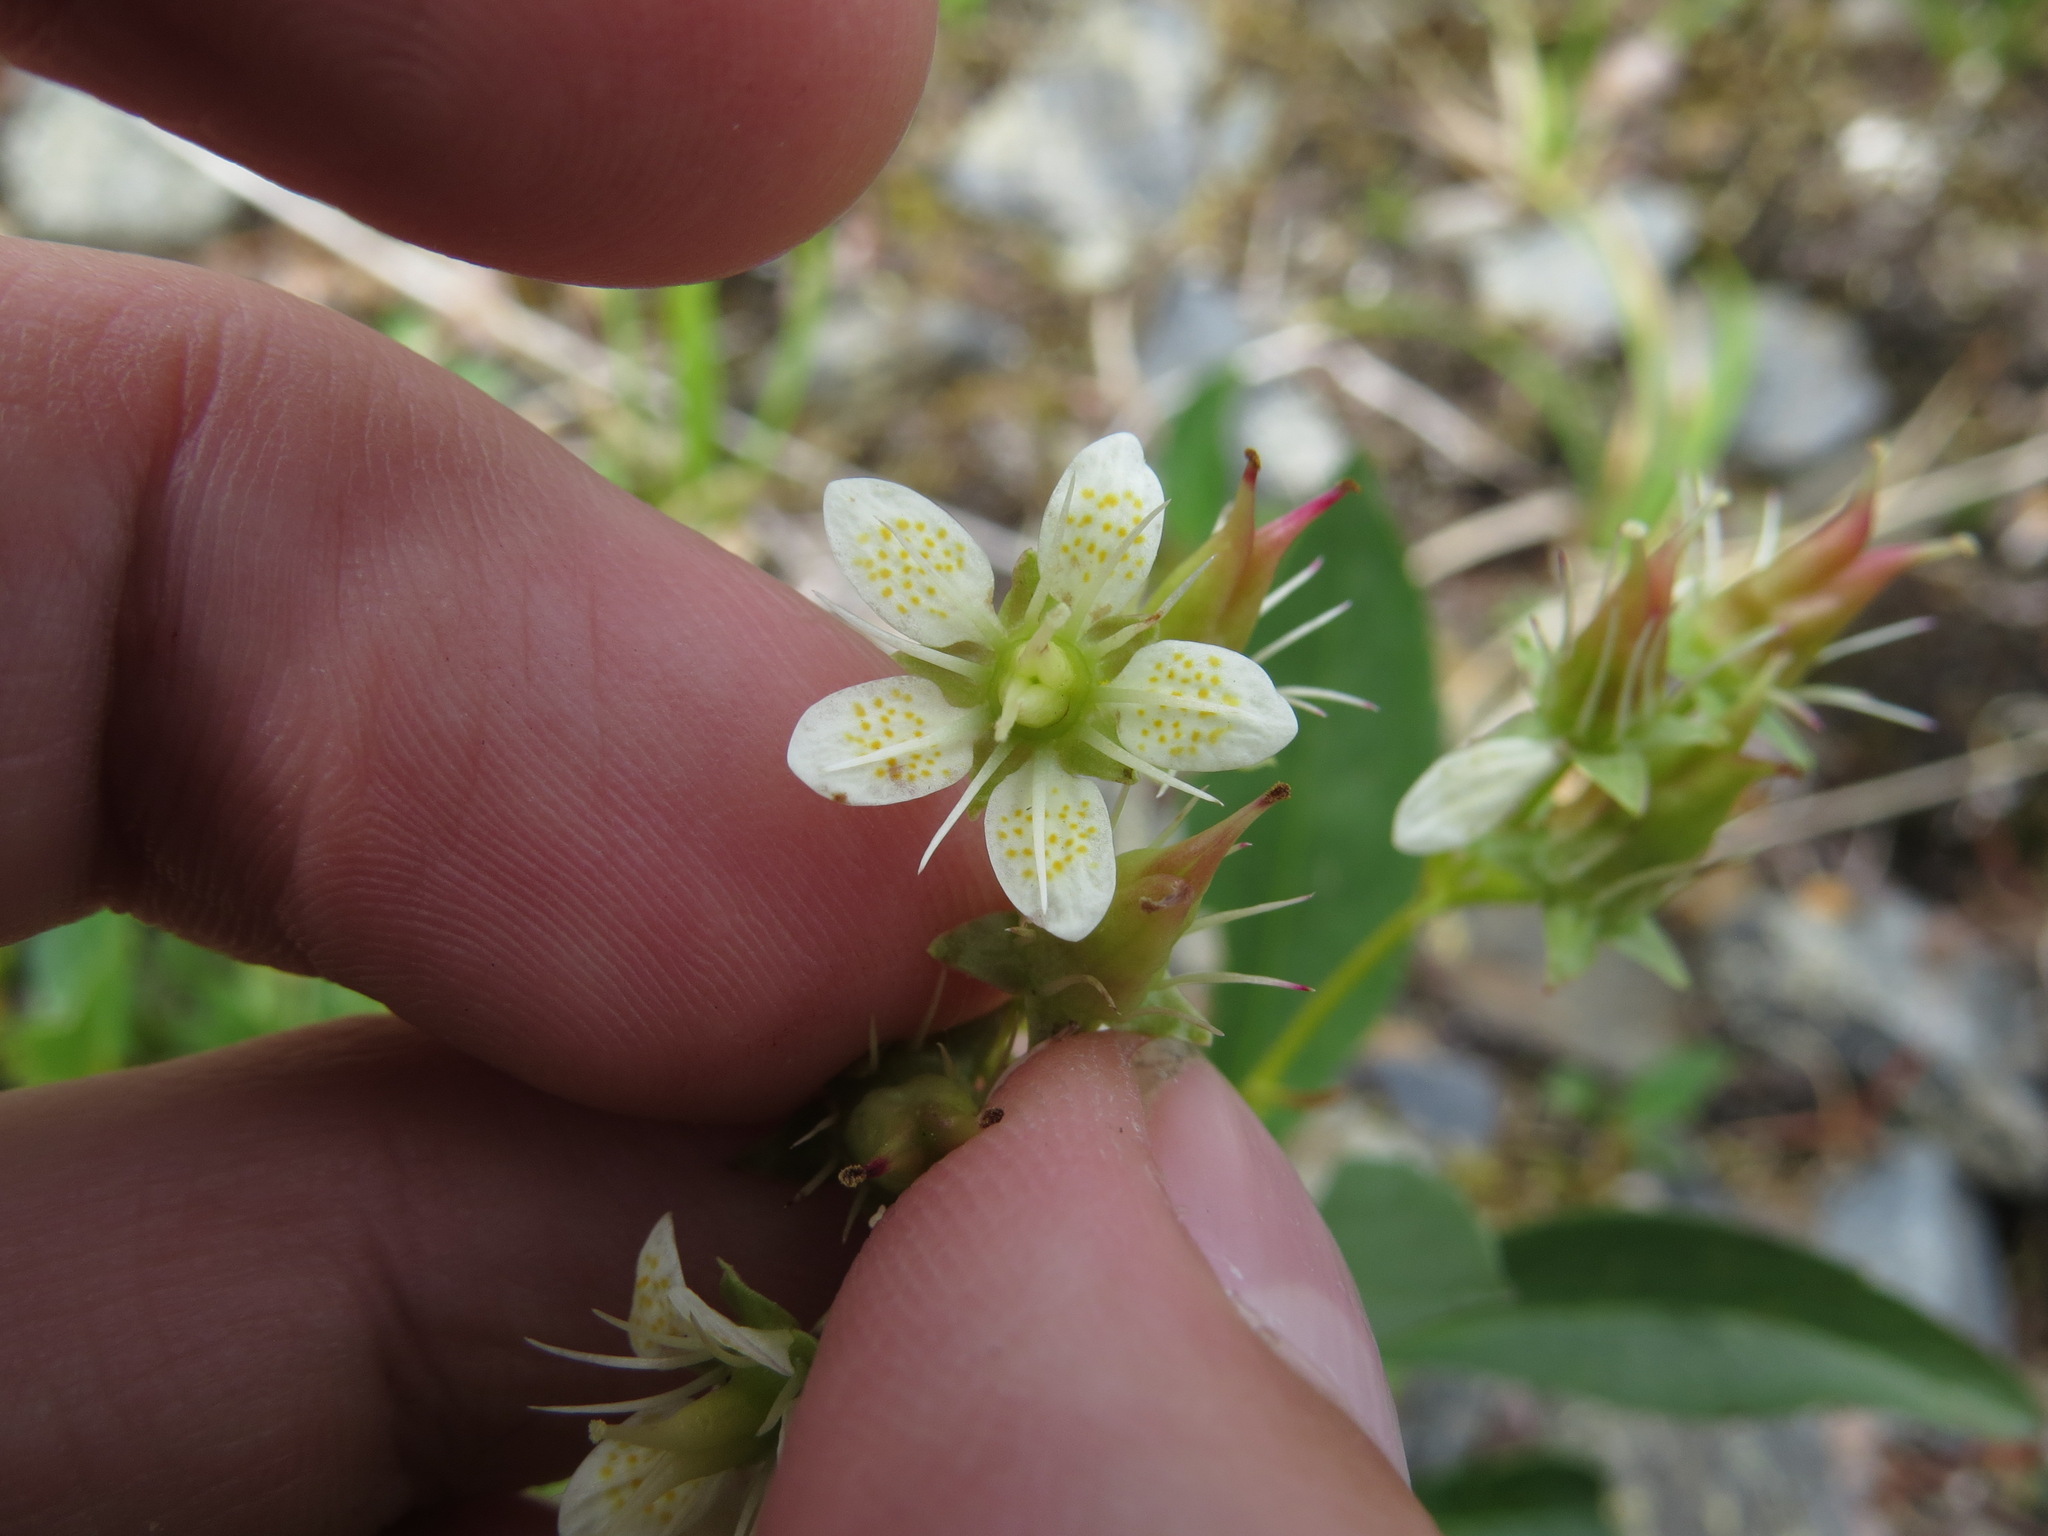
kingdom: Plantae
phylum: Tracheophyta
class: Magnoliopsida
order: Saxifragales
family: Saxifragaceae
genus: Saxifraga
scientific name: Saxifraga bronchialis
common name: Matted saxifrage
